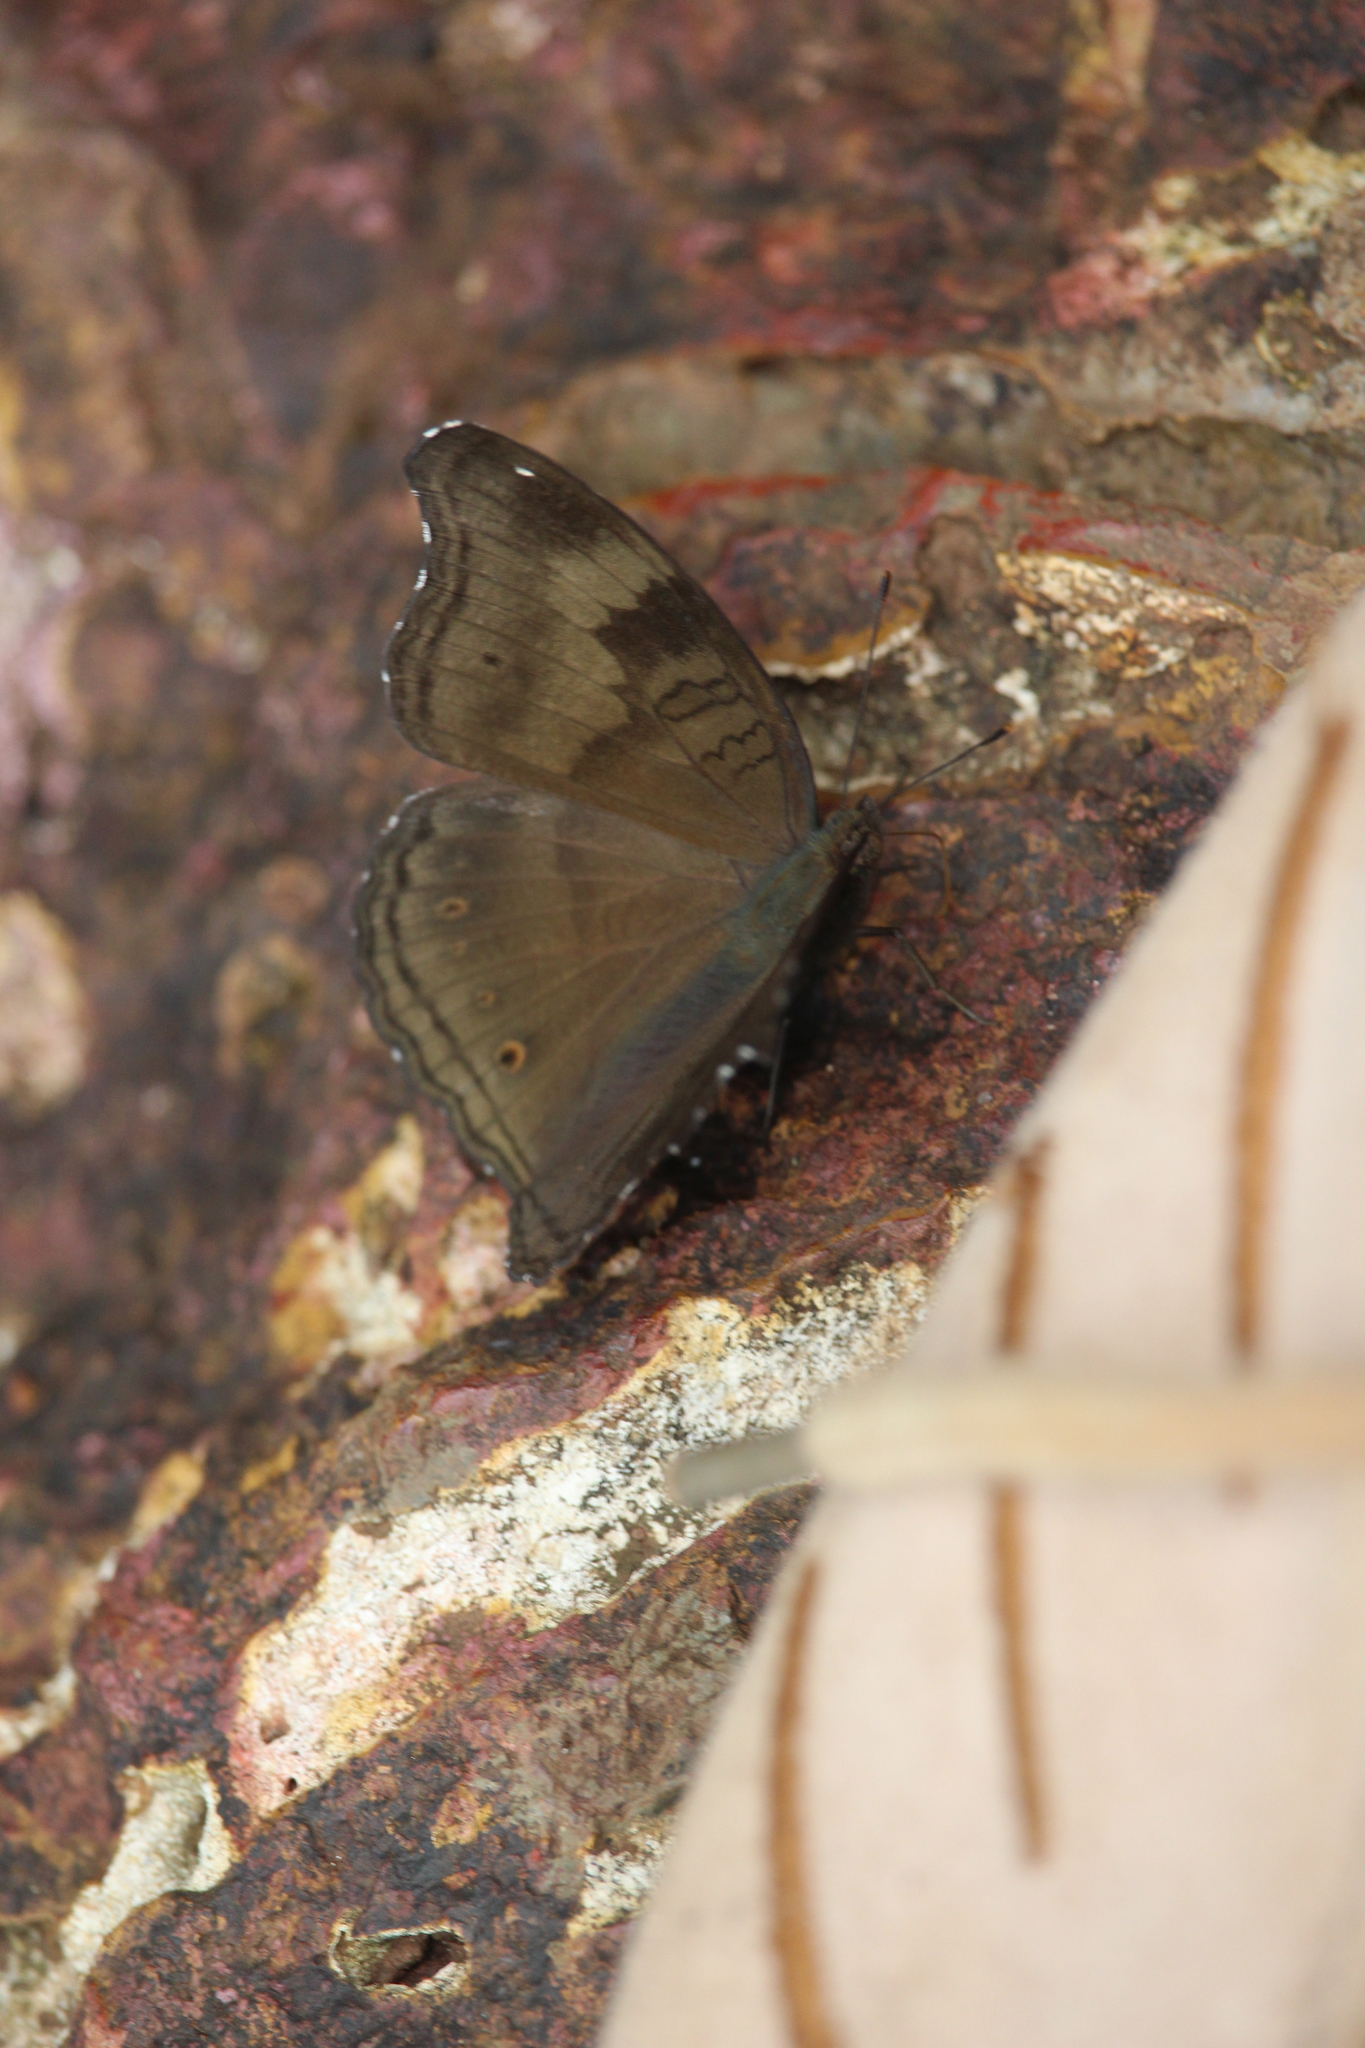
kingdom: Animalia
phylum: Arthropoda
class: Insecta
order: Lepidoptera
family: Nymphalidae
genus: Junonia
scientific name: Junonia iphita
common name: Chocolate pansy
